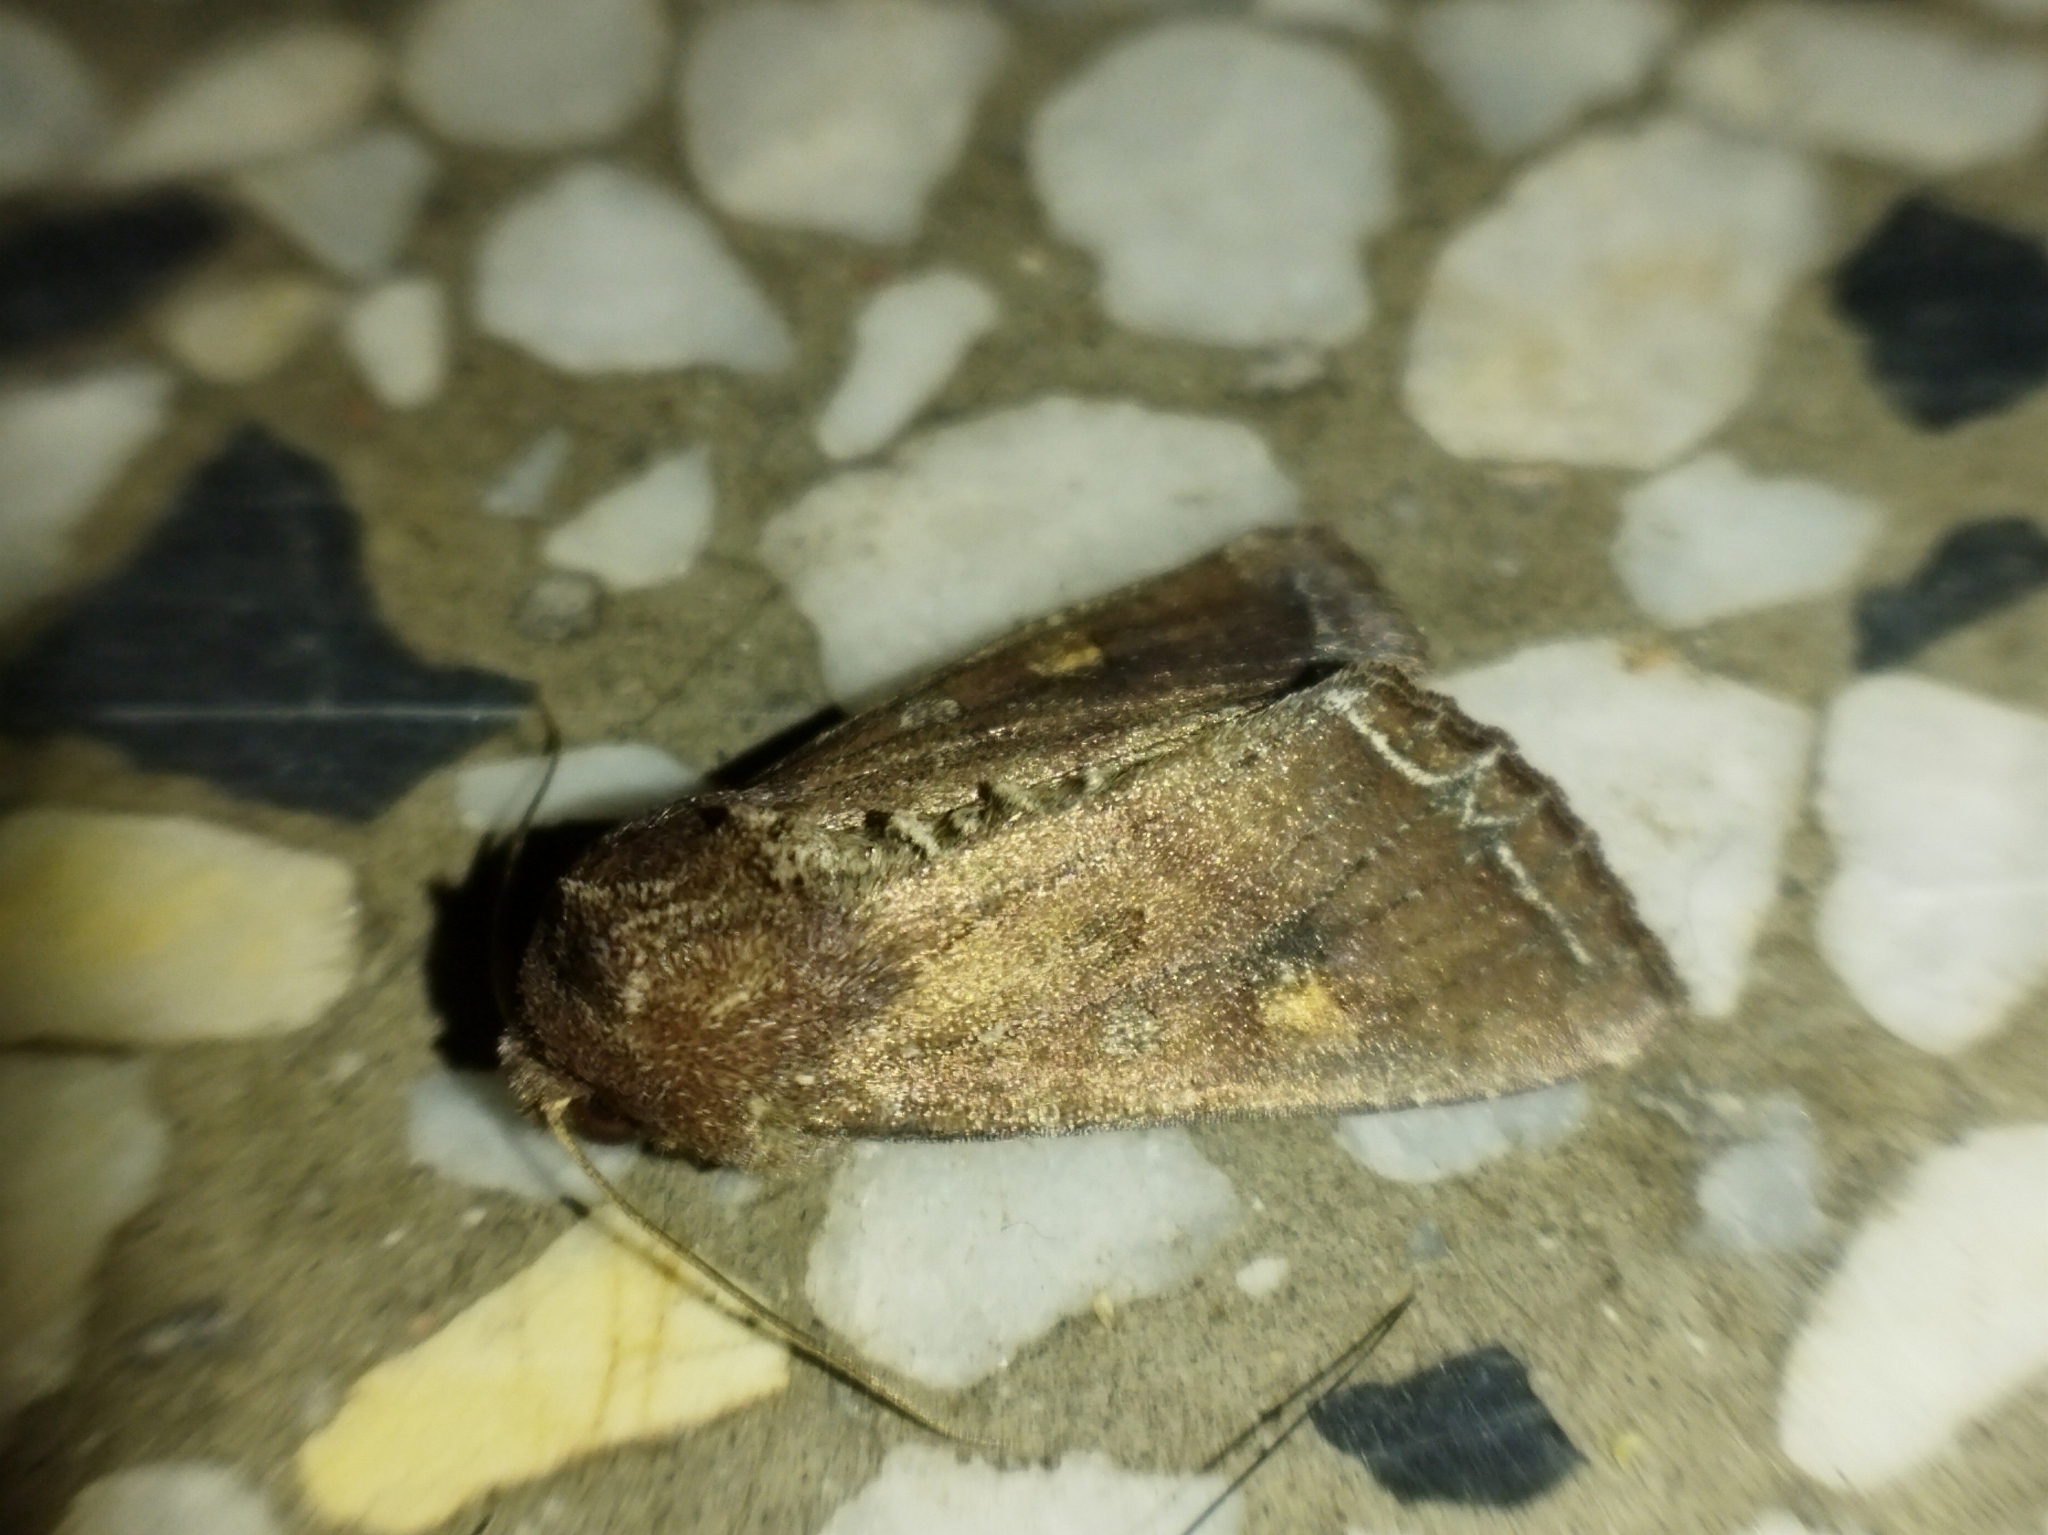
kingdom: Animalia
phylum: Arthropoda
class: Insecta
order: Lepidoptera
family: Noctuidae
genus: Lacanobia
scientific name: Lacanobia oleracea
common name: Bright-line brown-eye
